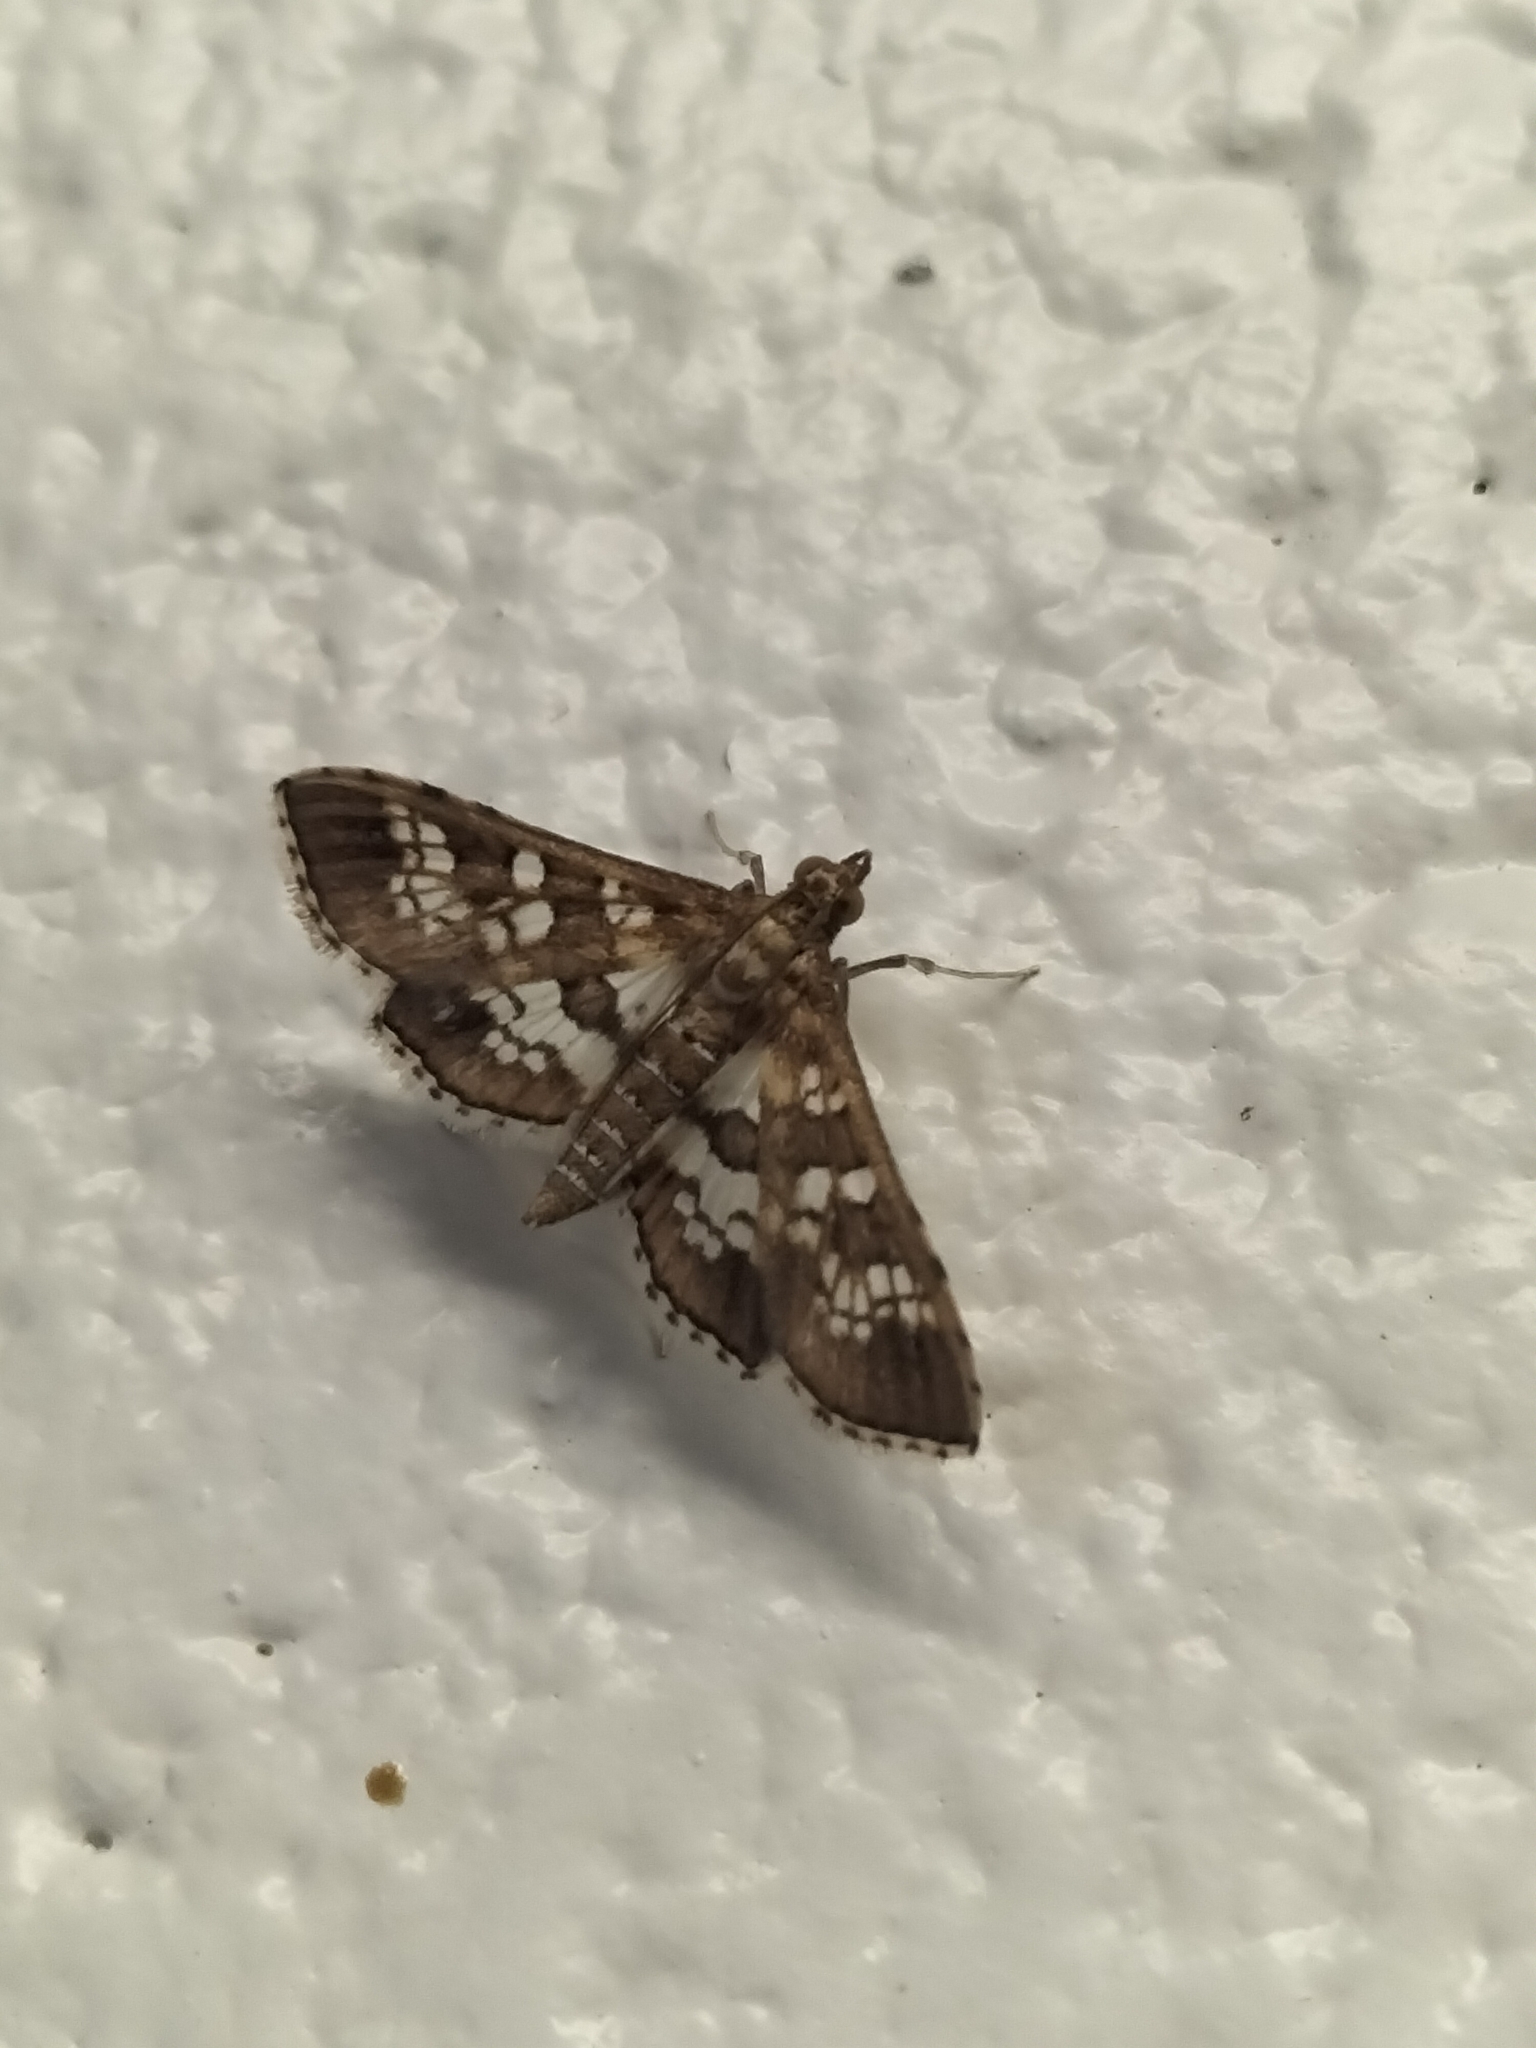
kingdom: Animalia
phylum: Arthropoda
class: Insecta
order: Lepidoptera
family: Crambidae
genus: Sameodes
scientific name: Sameodes cancellalis
